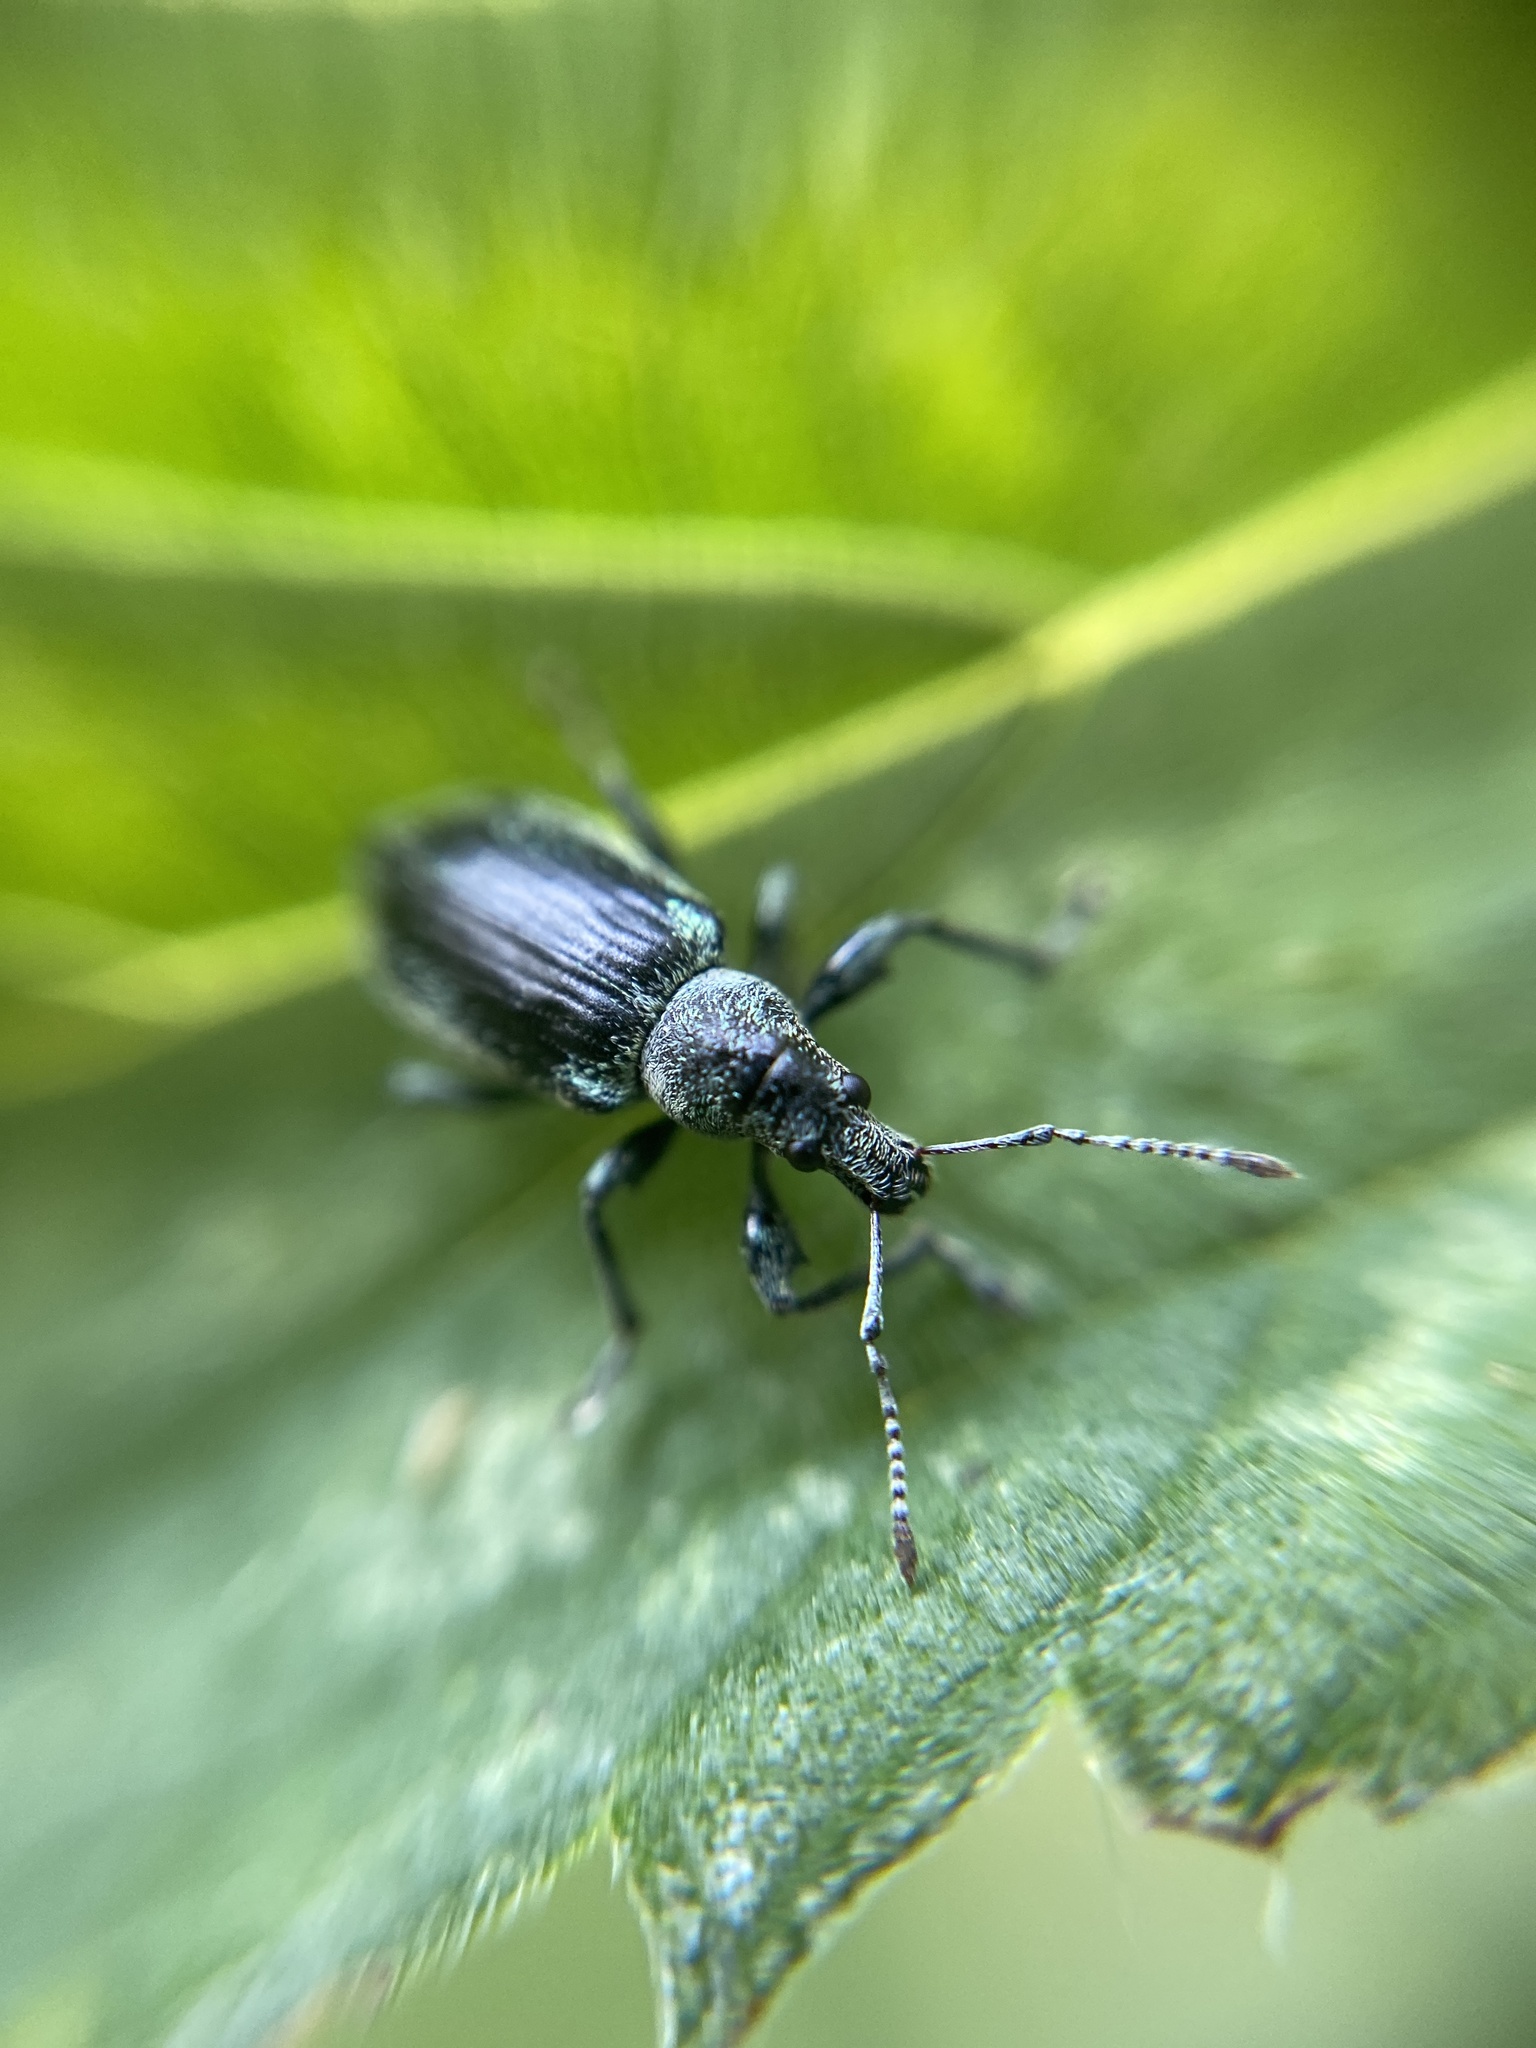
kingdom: Animalia
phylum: Arthropoda
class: Insecta
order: Coleoptera
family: Curculionidae
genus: Phyllobius
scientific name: Phyllobius pomaceus
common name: Green nettle weevil
